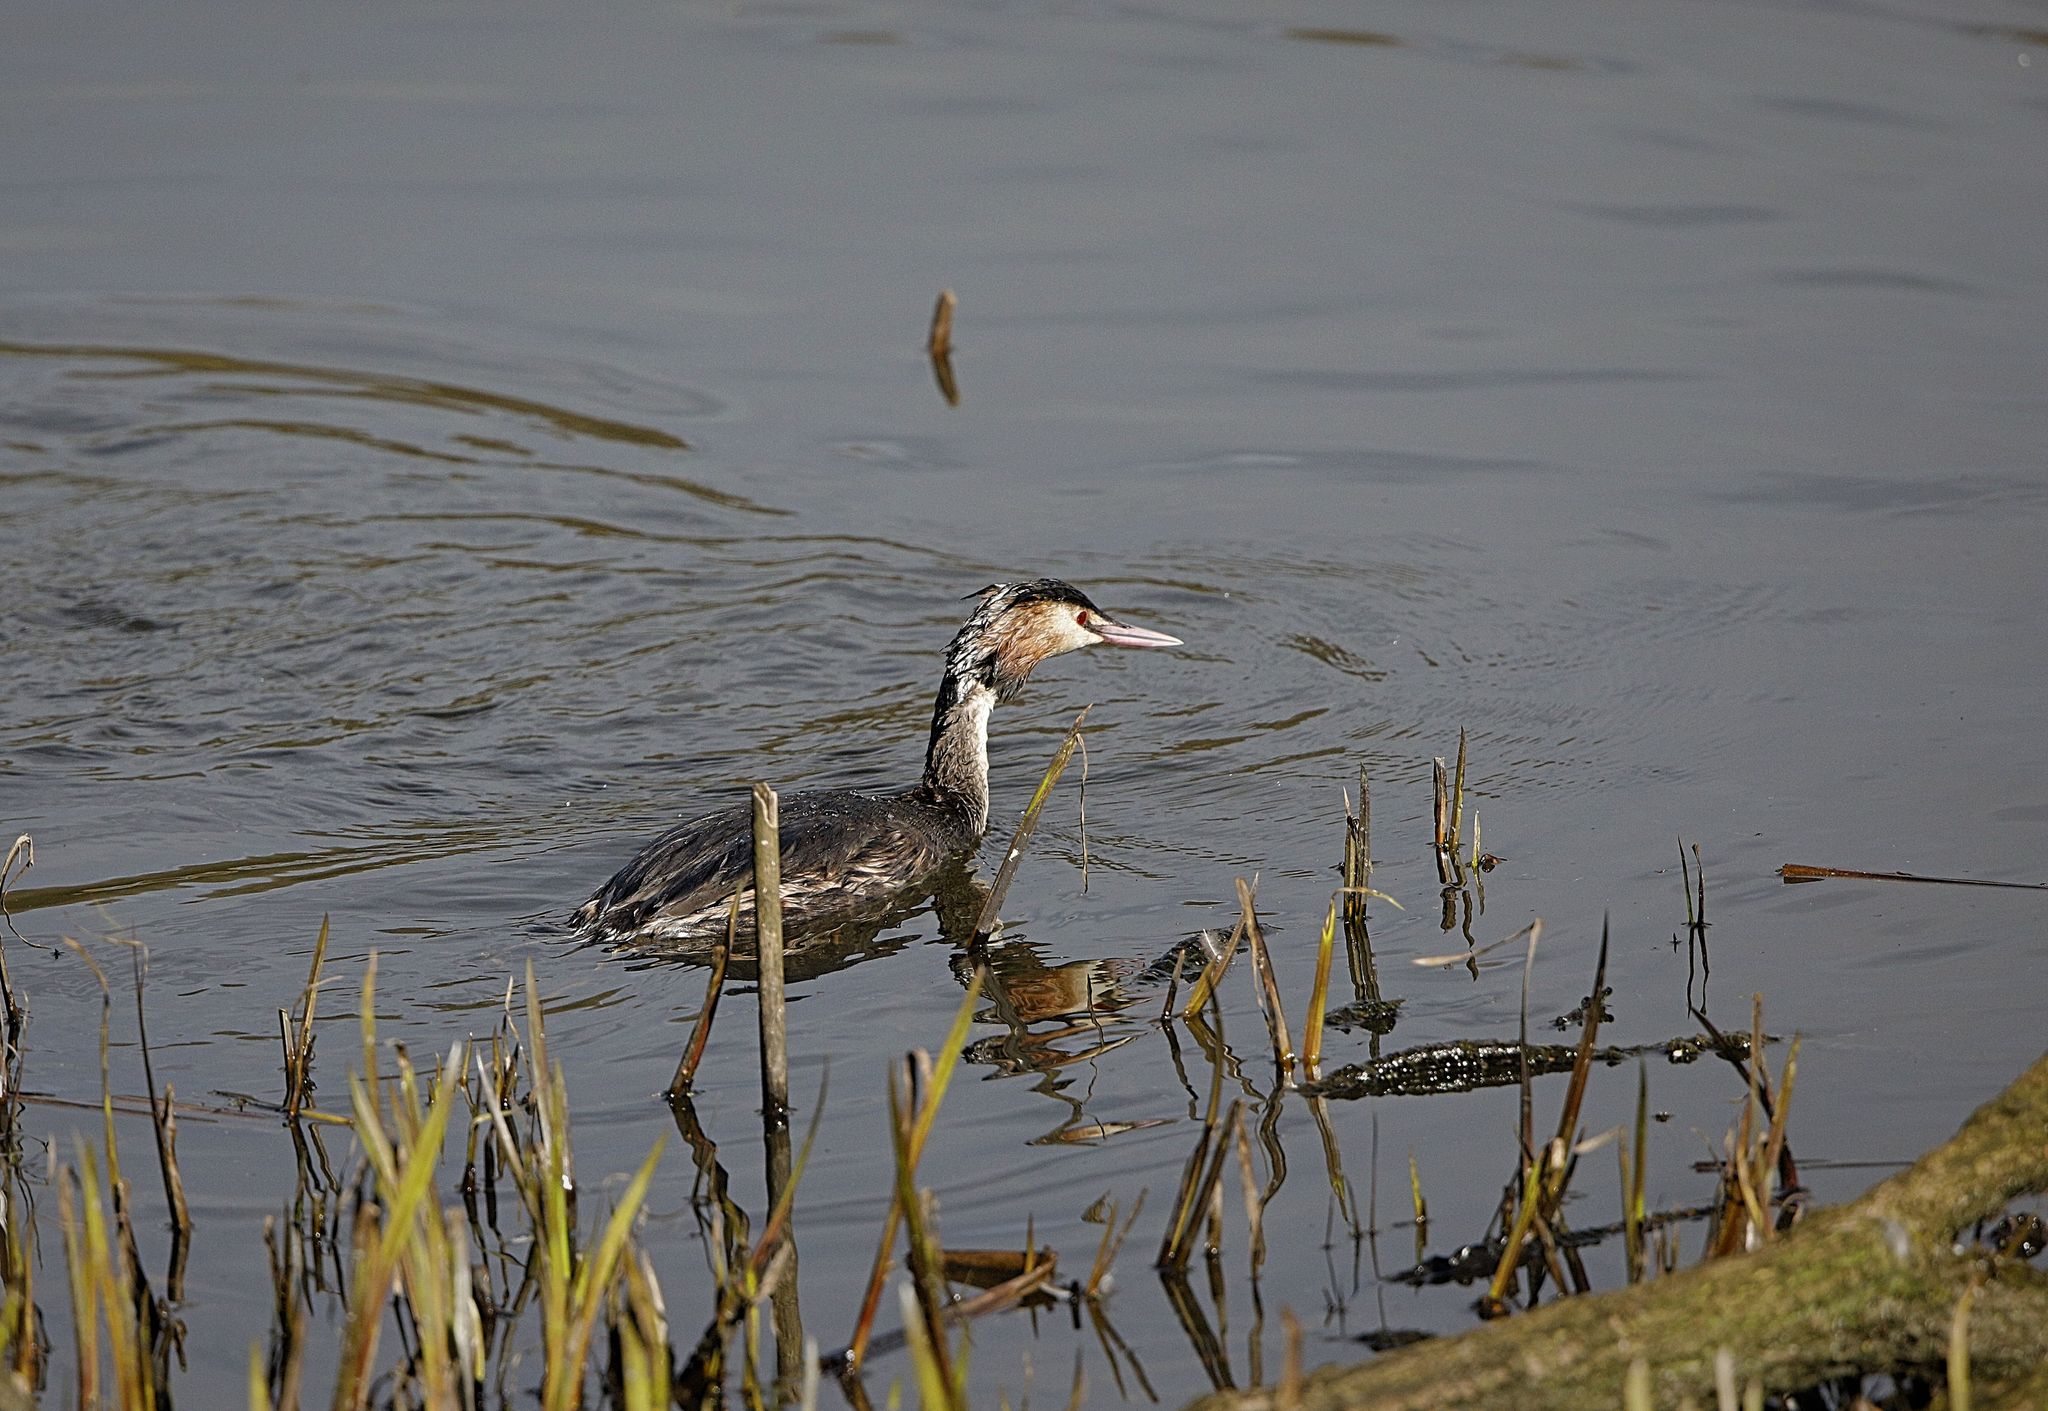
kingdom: Animalia
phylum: Chordata
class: Aves
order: Podicipediformes
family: Podicipedidae
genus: Podiceps
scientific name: Podiceps cristatus
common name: Great crested grebe
